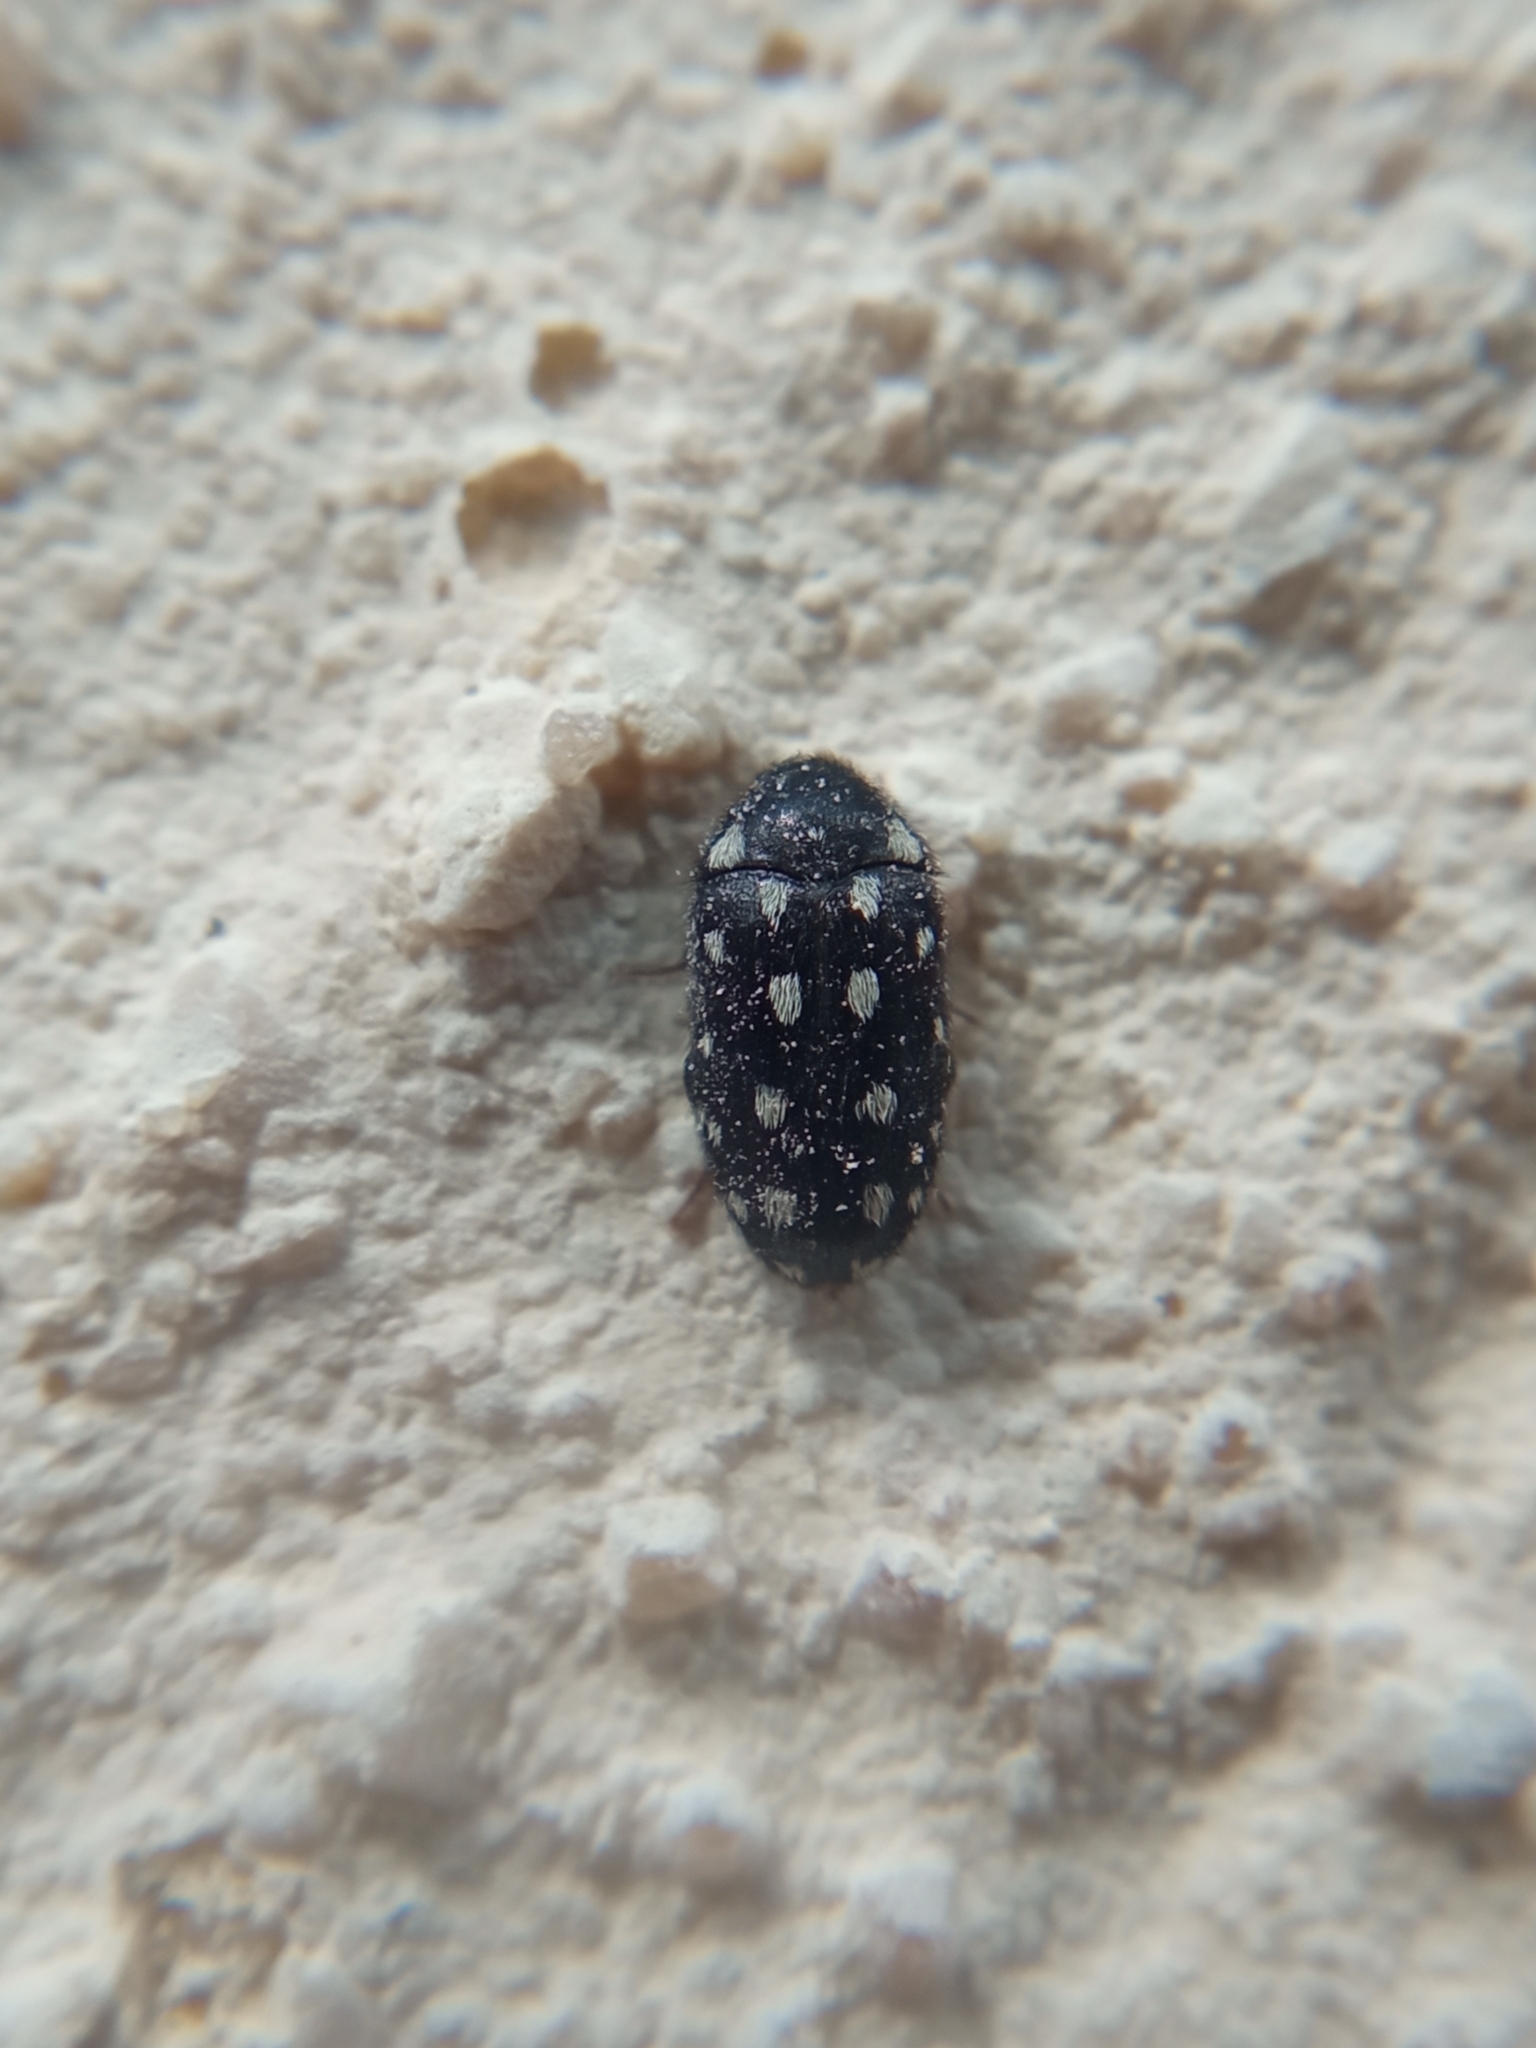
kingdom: Animalia
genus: Paranovelsis
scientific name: Paranovelsis
